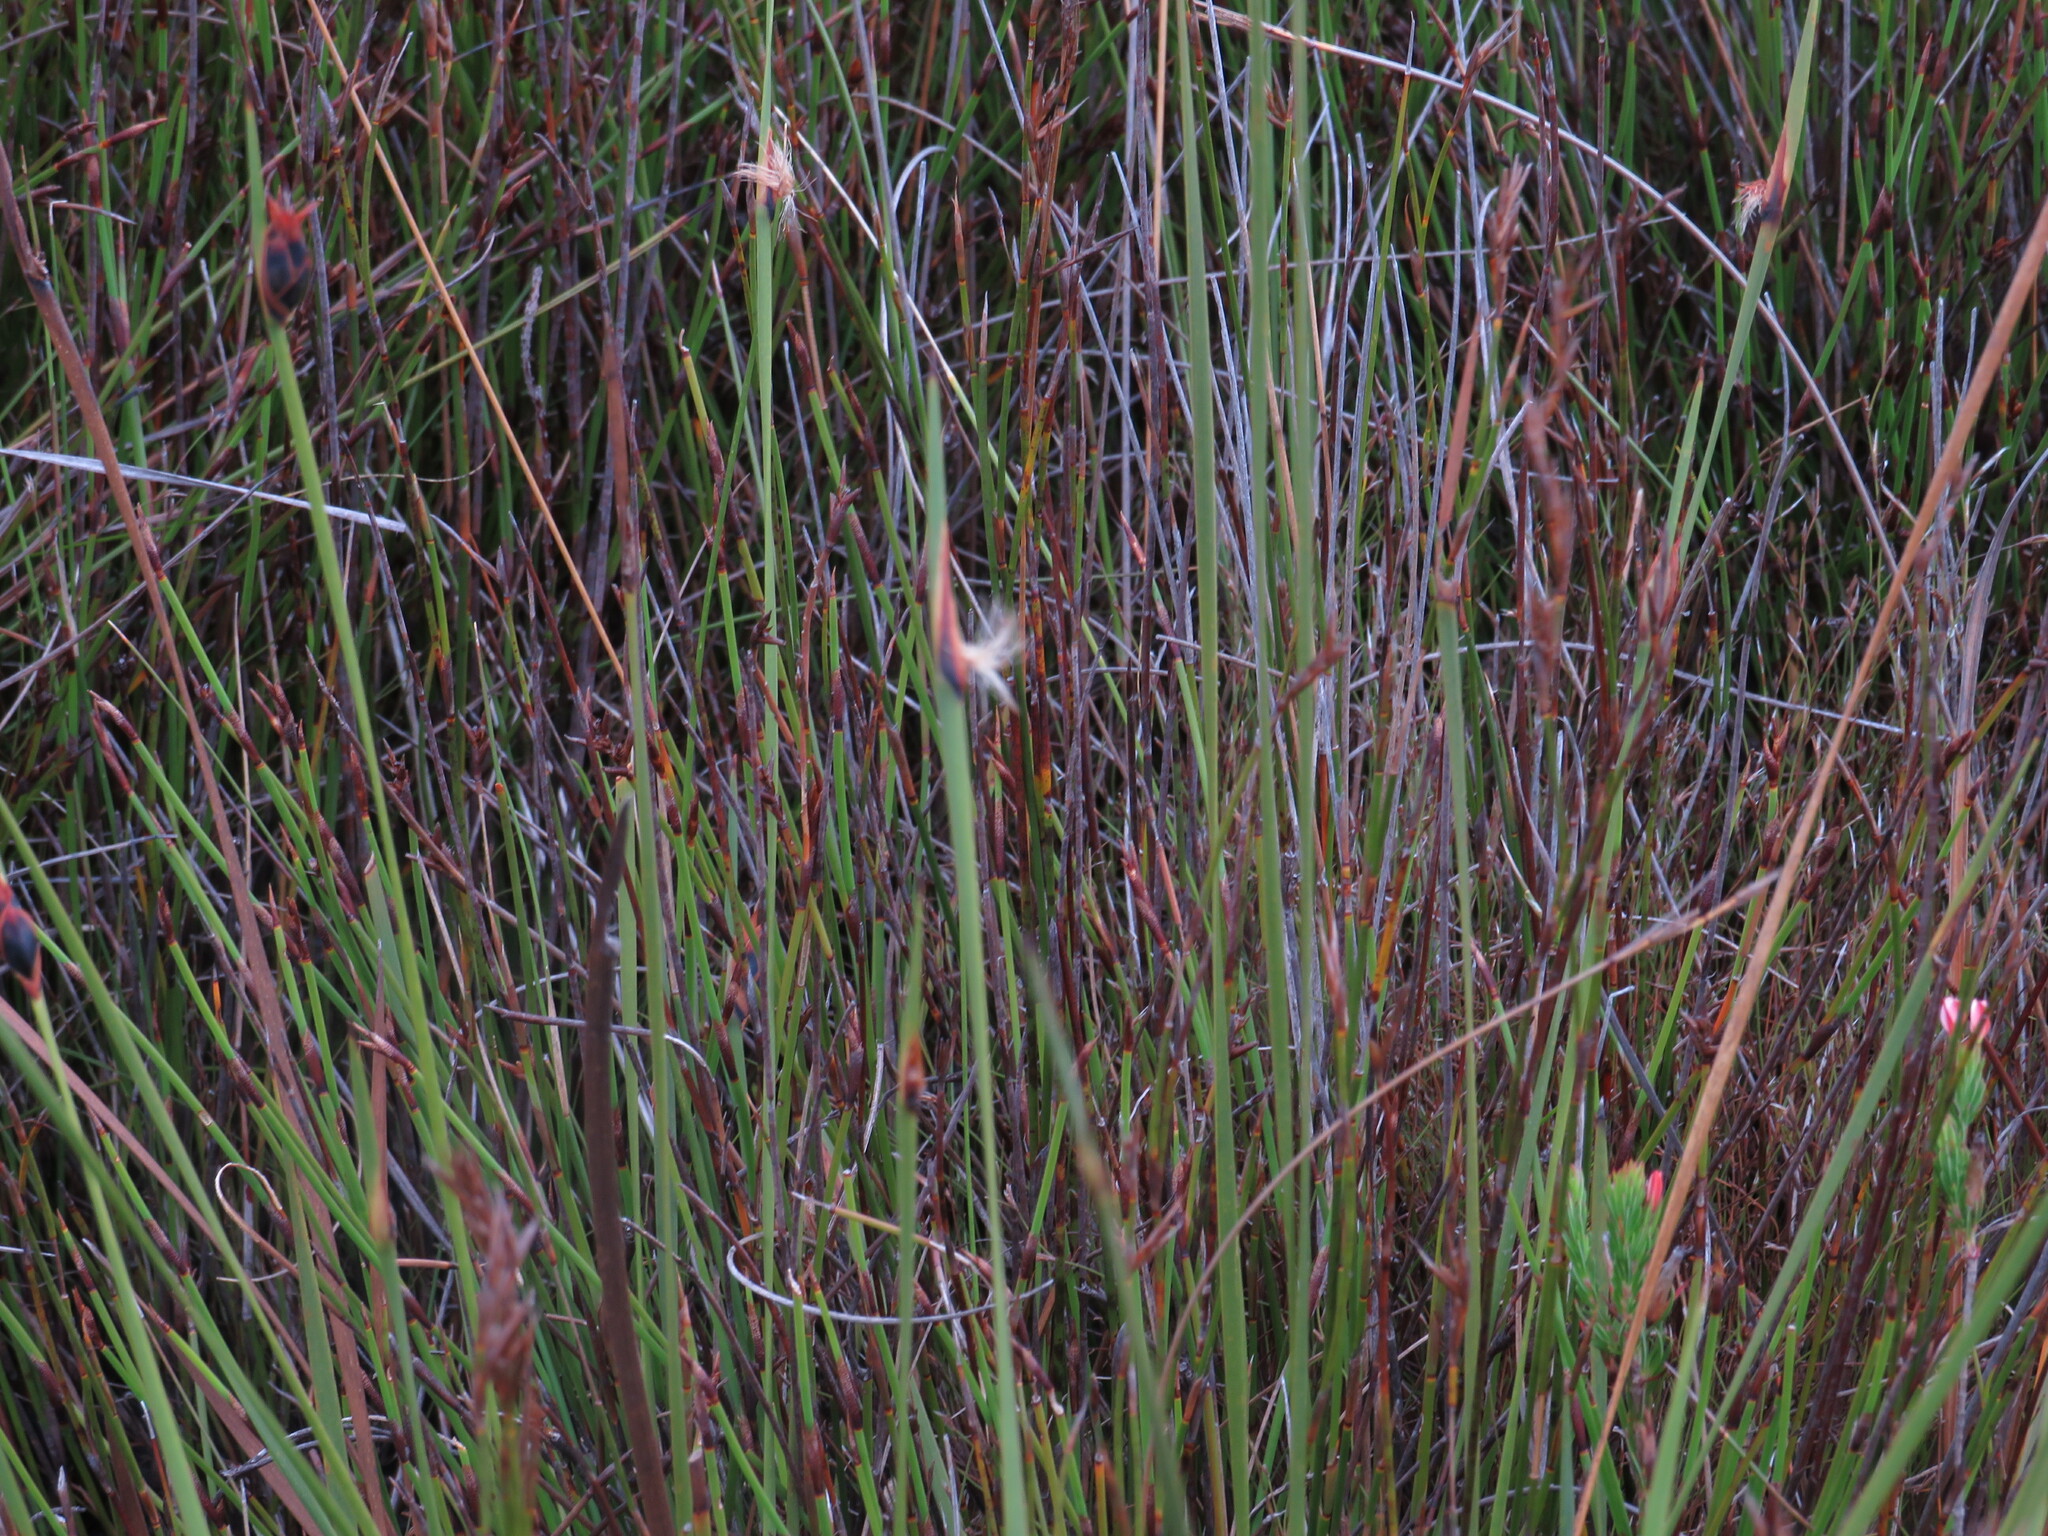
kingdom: Plantae
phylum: Tracheophyta
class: Liliopsida
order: Poales
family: Cyperaceae
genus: Chrysitrix
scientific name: Chrysitrix capensis
